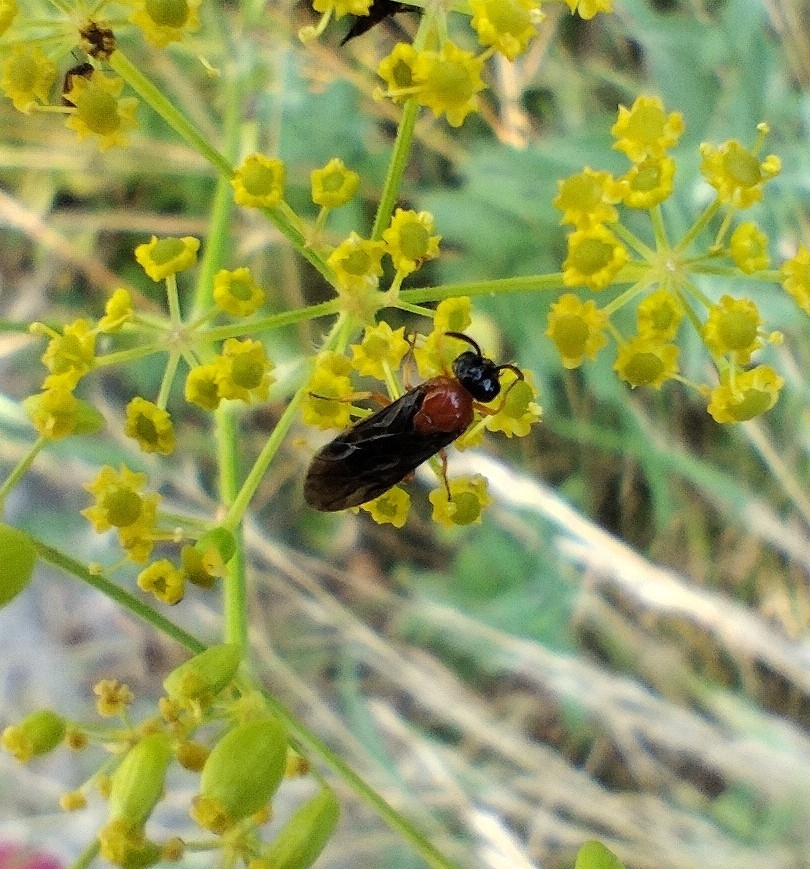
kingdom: Animalia
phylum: Arthropoda
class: Insecta
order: Hymenoptera
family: Argidae
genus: Sterictiphora
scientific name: Sterictiphora angelicae
